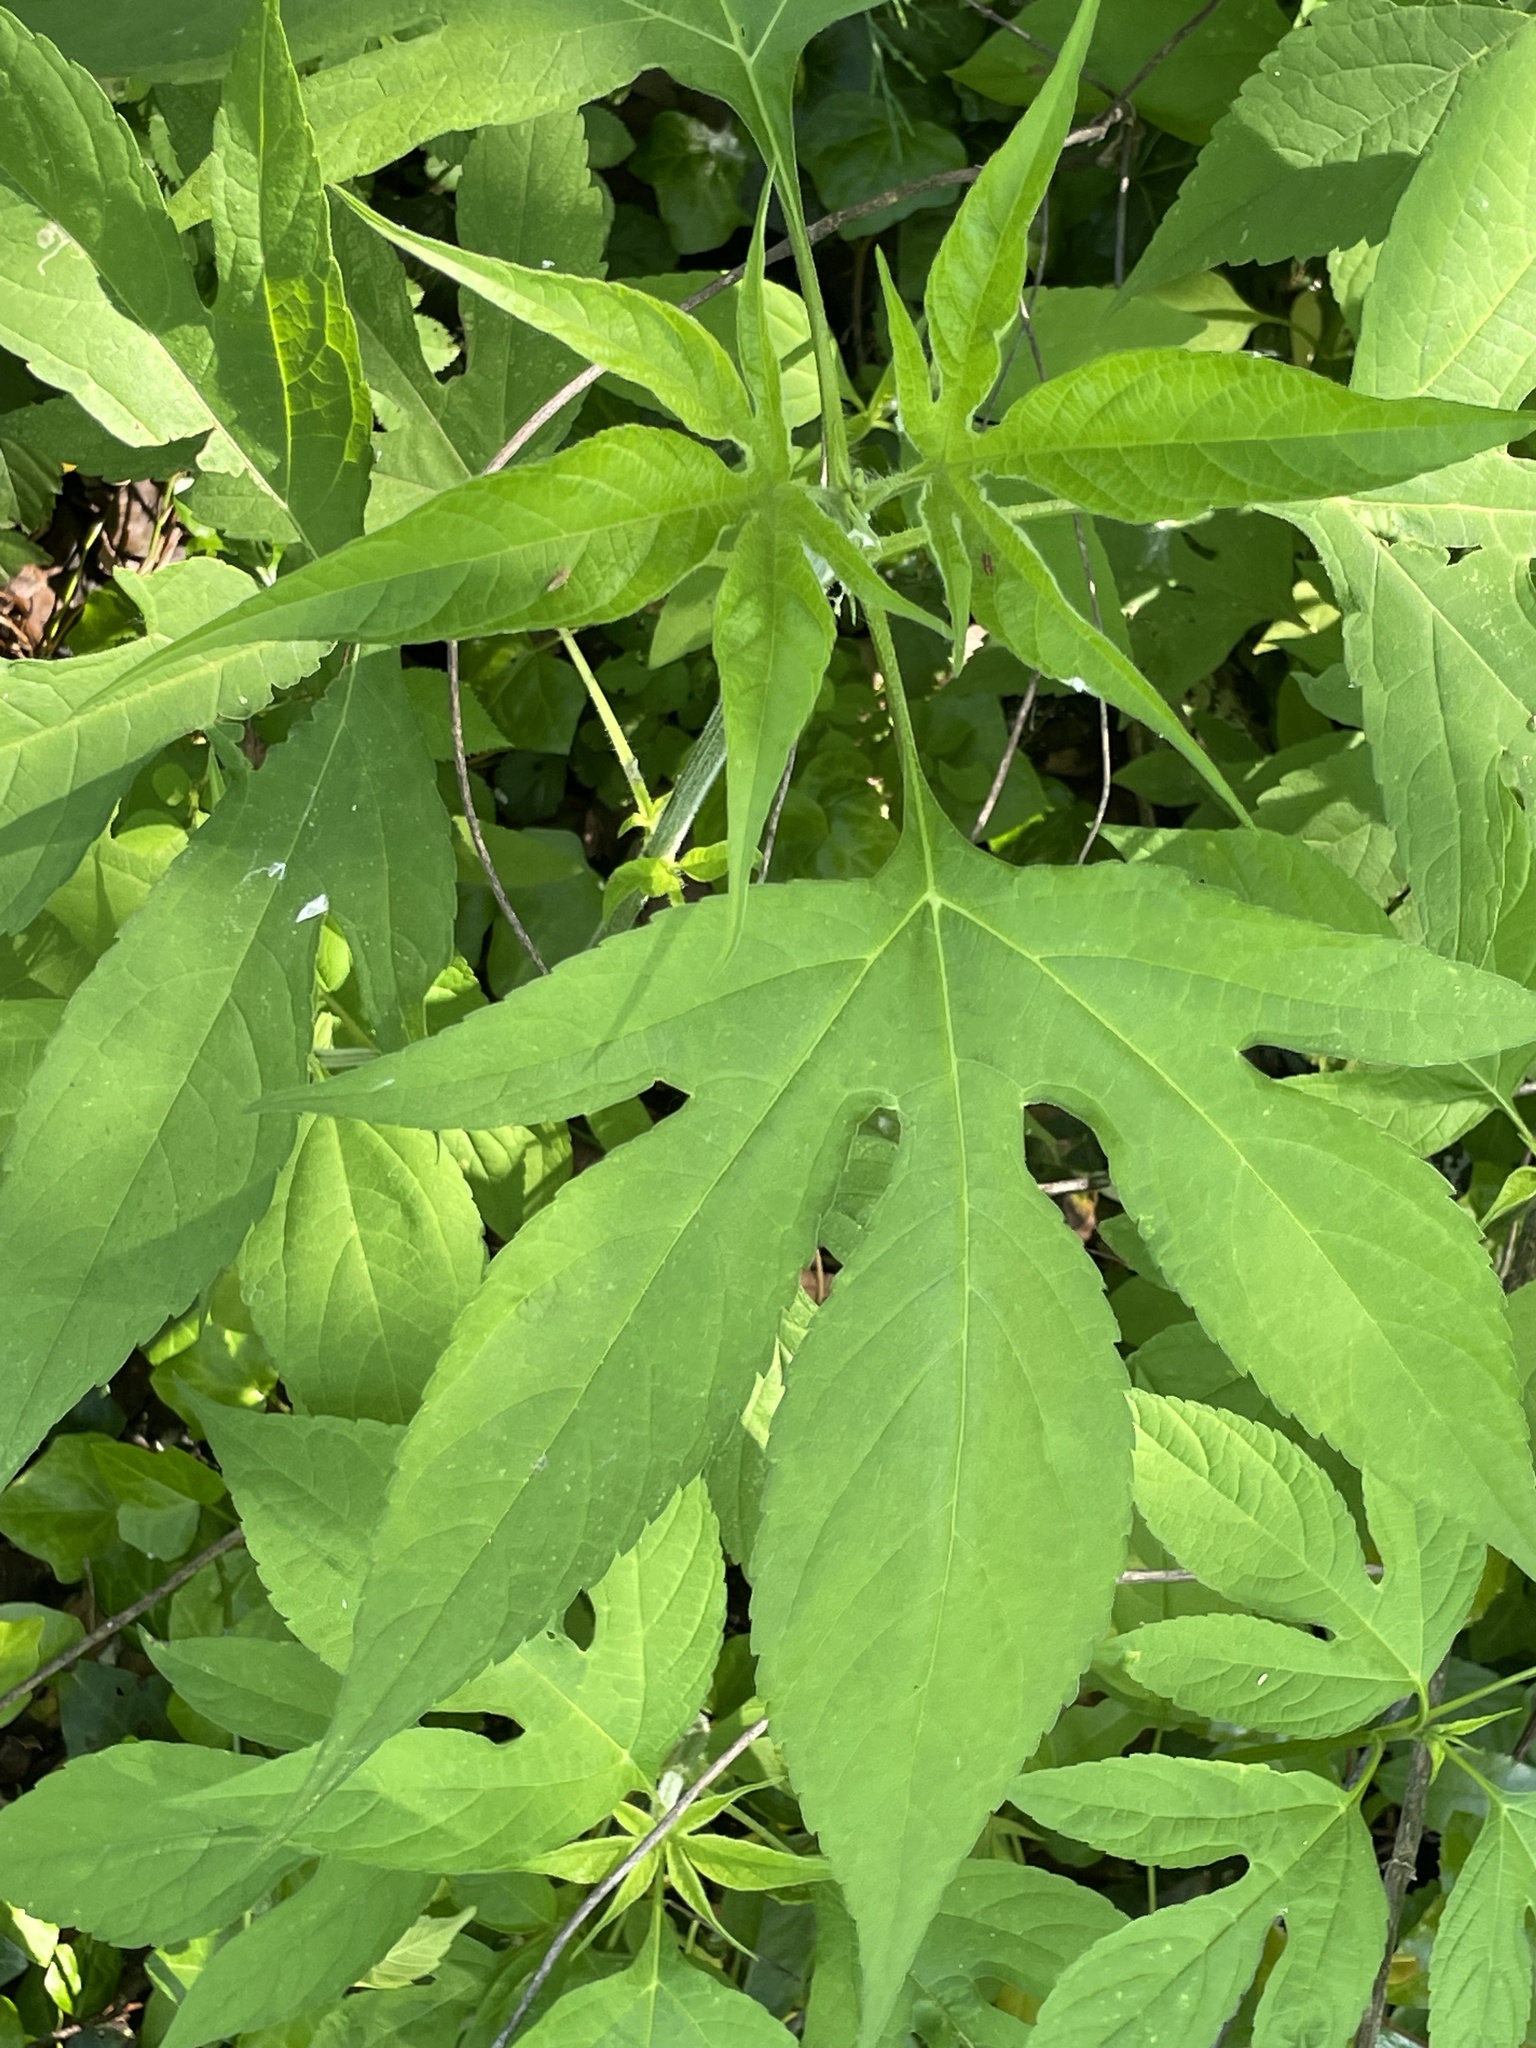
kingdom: Plantae
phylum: Tracheophyta
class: Magnoliopsida
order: Asterales
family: Asteraceae
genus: Ambrosia
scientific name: Ambrosia trifida
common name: Giant ragweed
